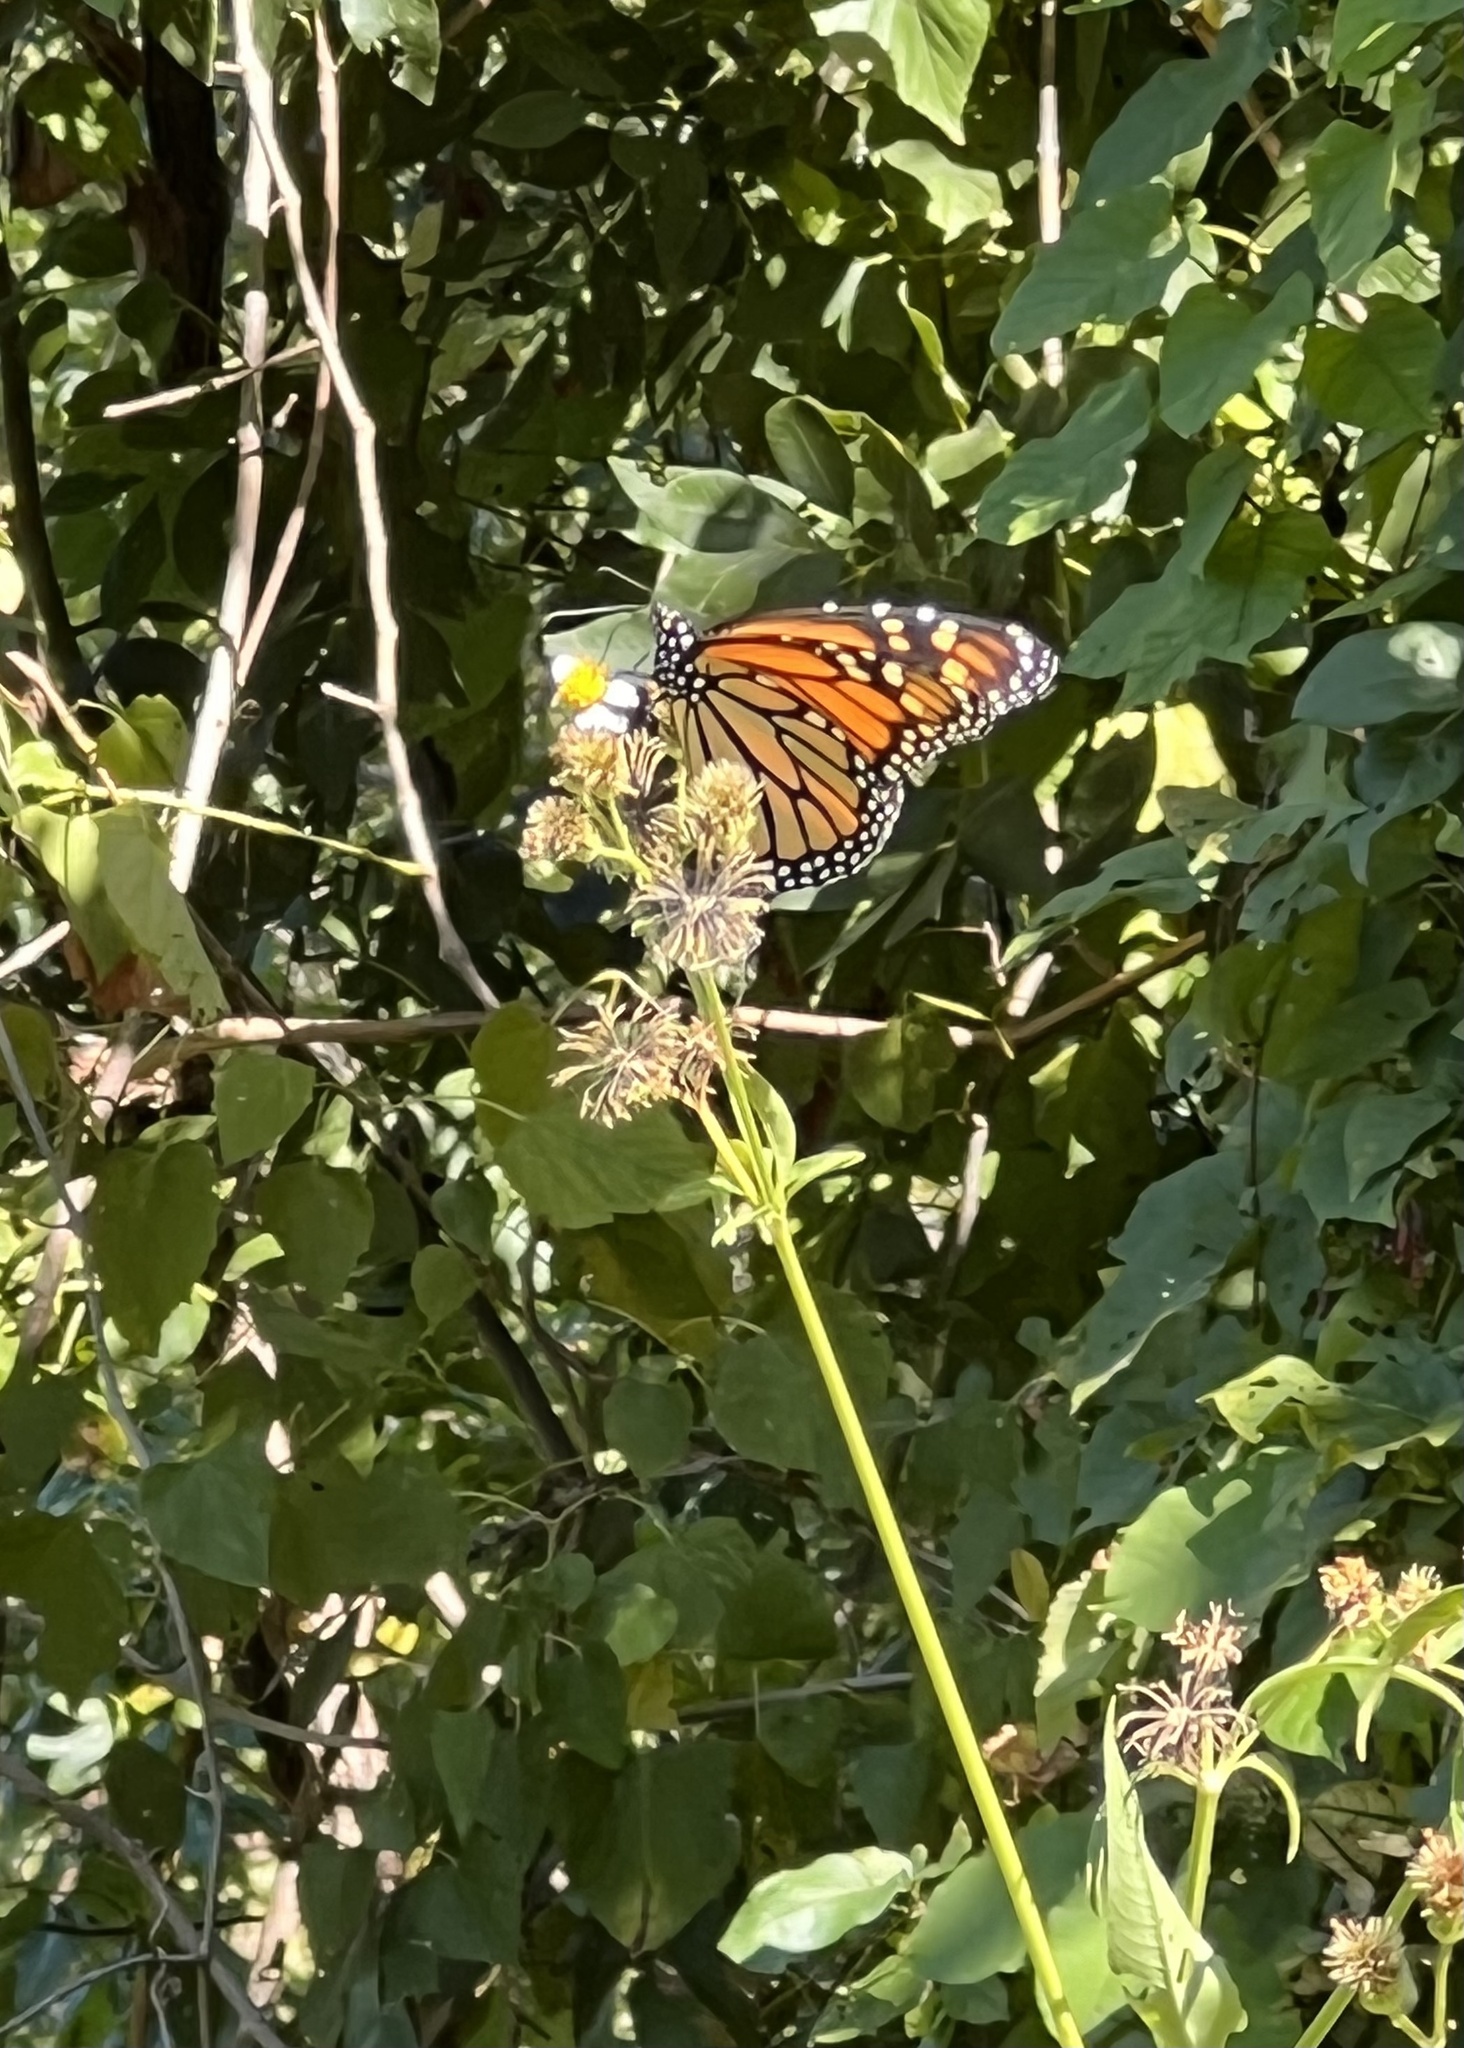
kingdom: Animalia
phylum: Arthropoda
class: Insecta
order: Lepidoptera
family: Nymphalidae
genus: Danaus
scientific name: Danaus plexippus
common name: Monarch
